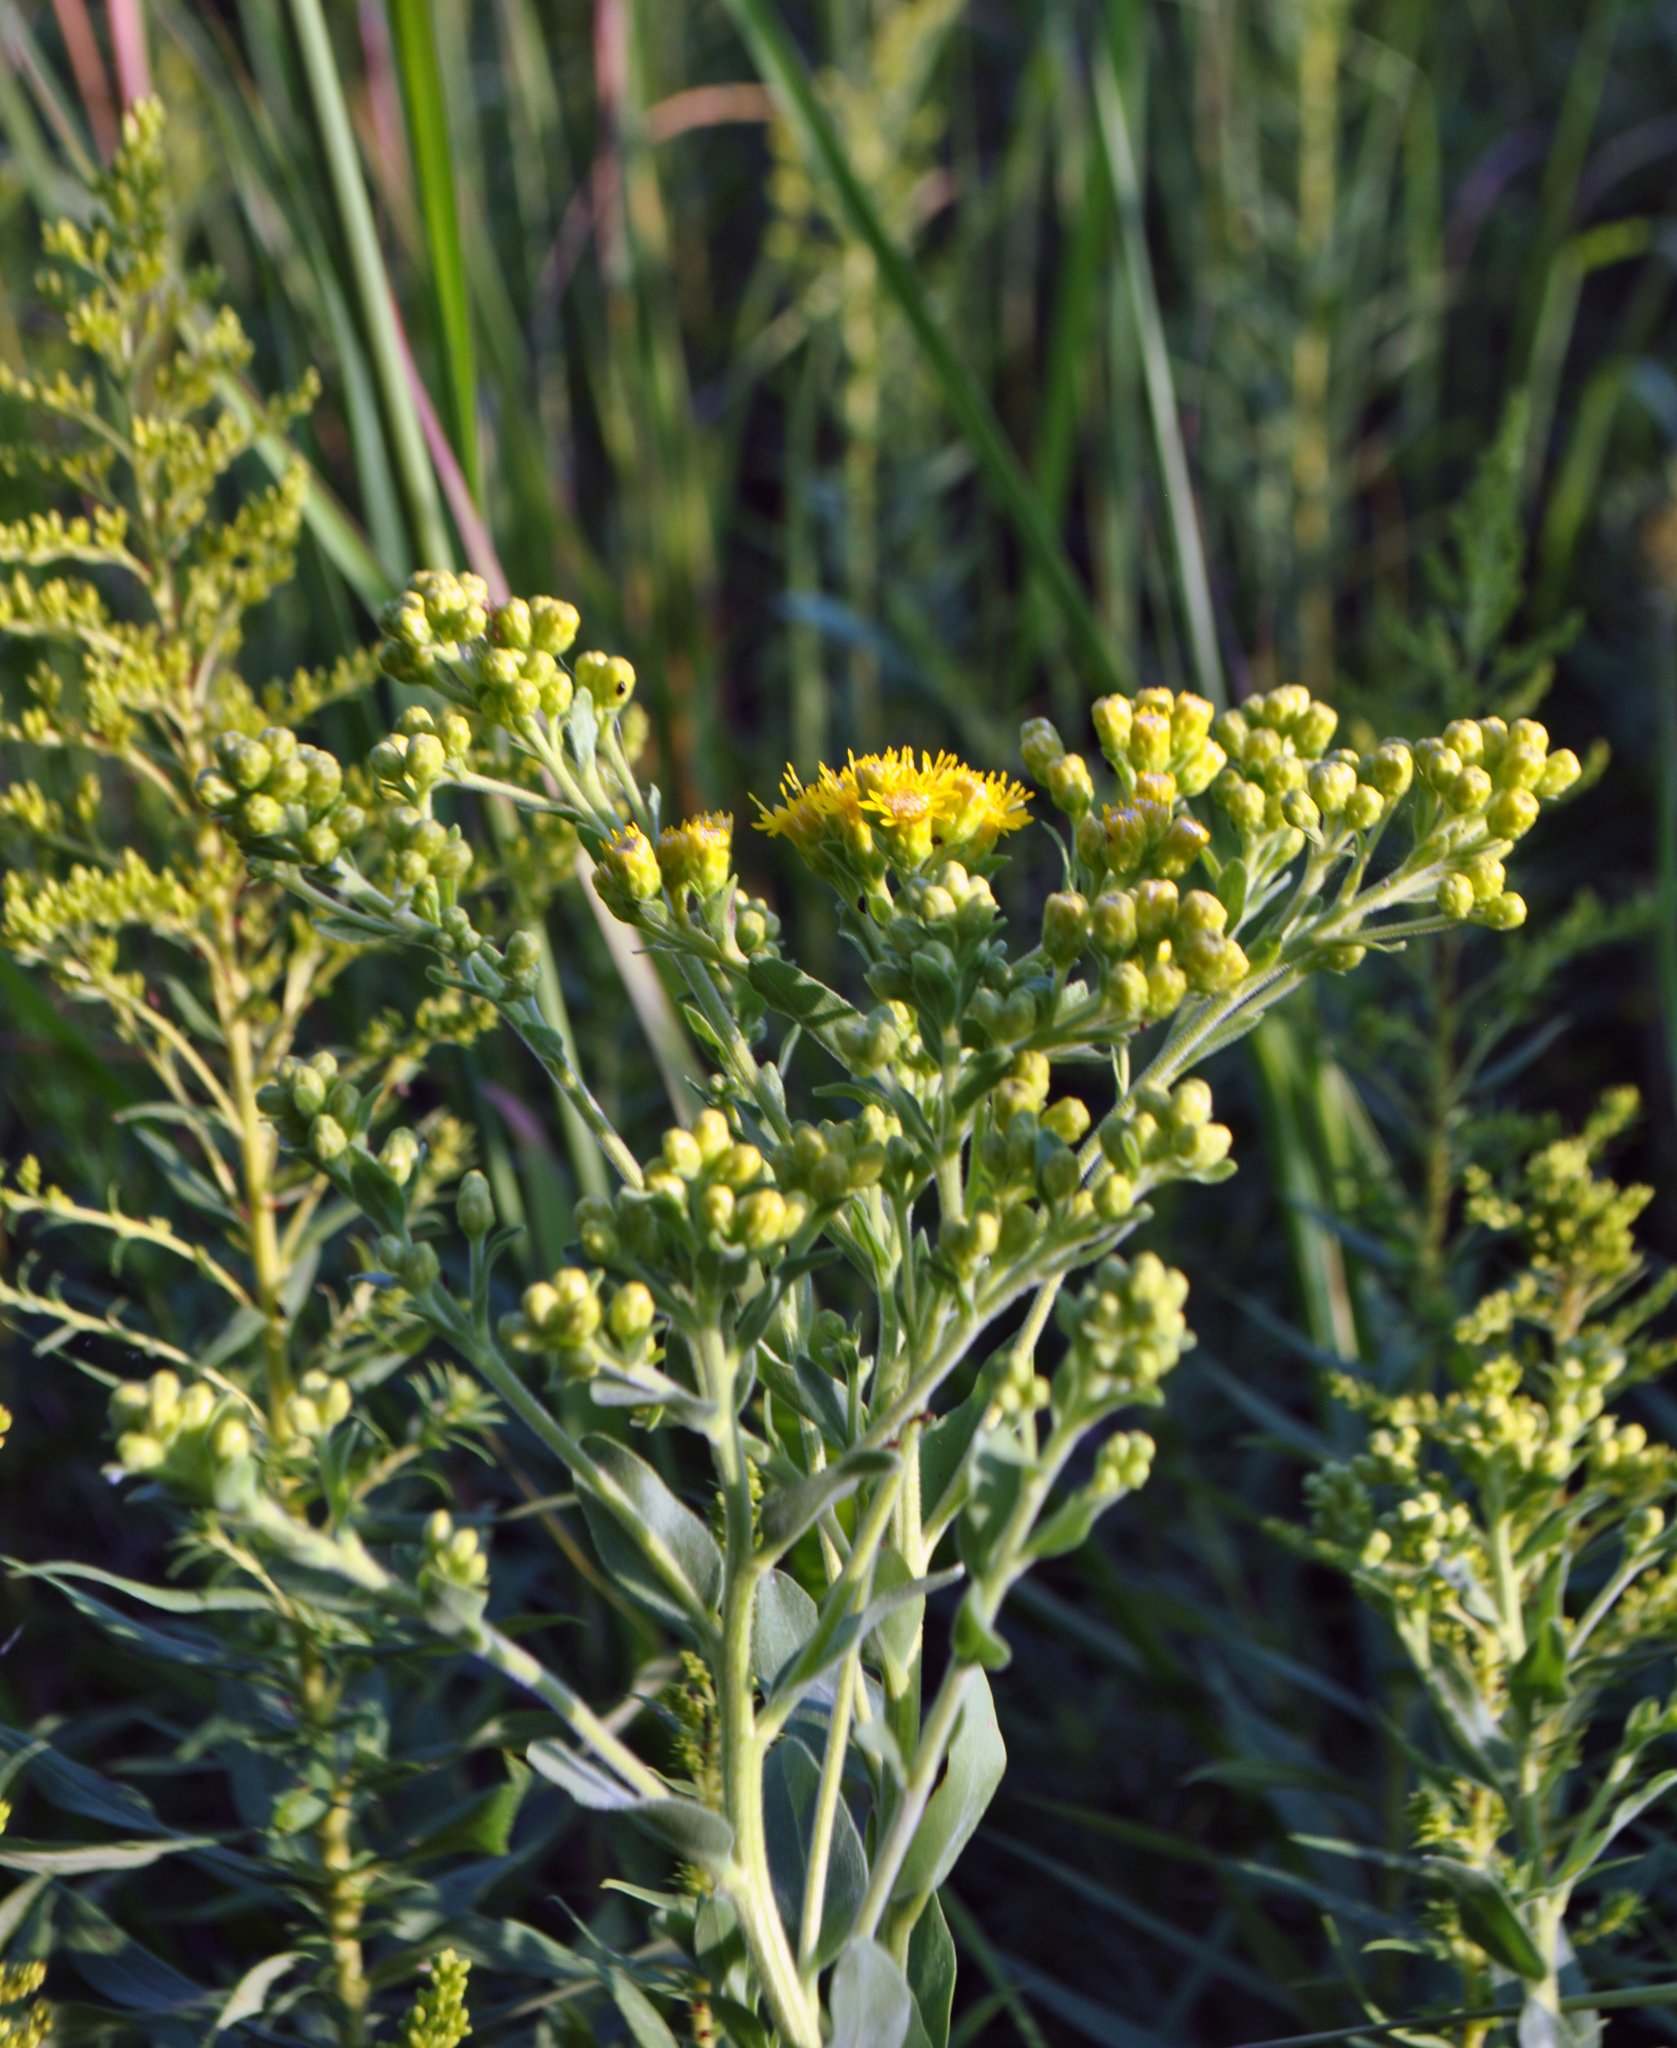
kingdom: Plantae
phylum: Tracheophyta
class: Magnoliopsida
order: Asterales
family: Asteraceae
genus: Solidago
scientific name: Solidago rigida
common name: Rigid goldenrod
